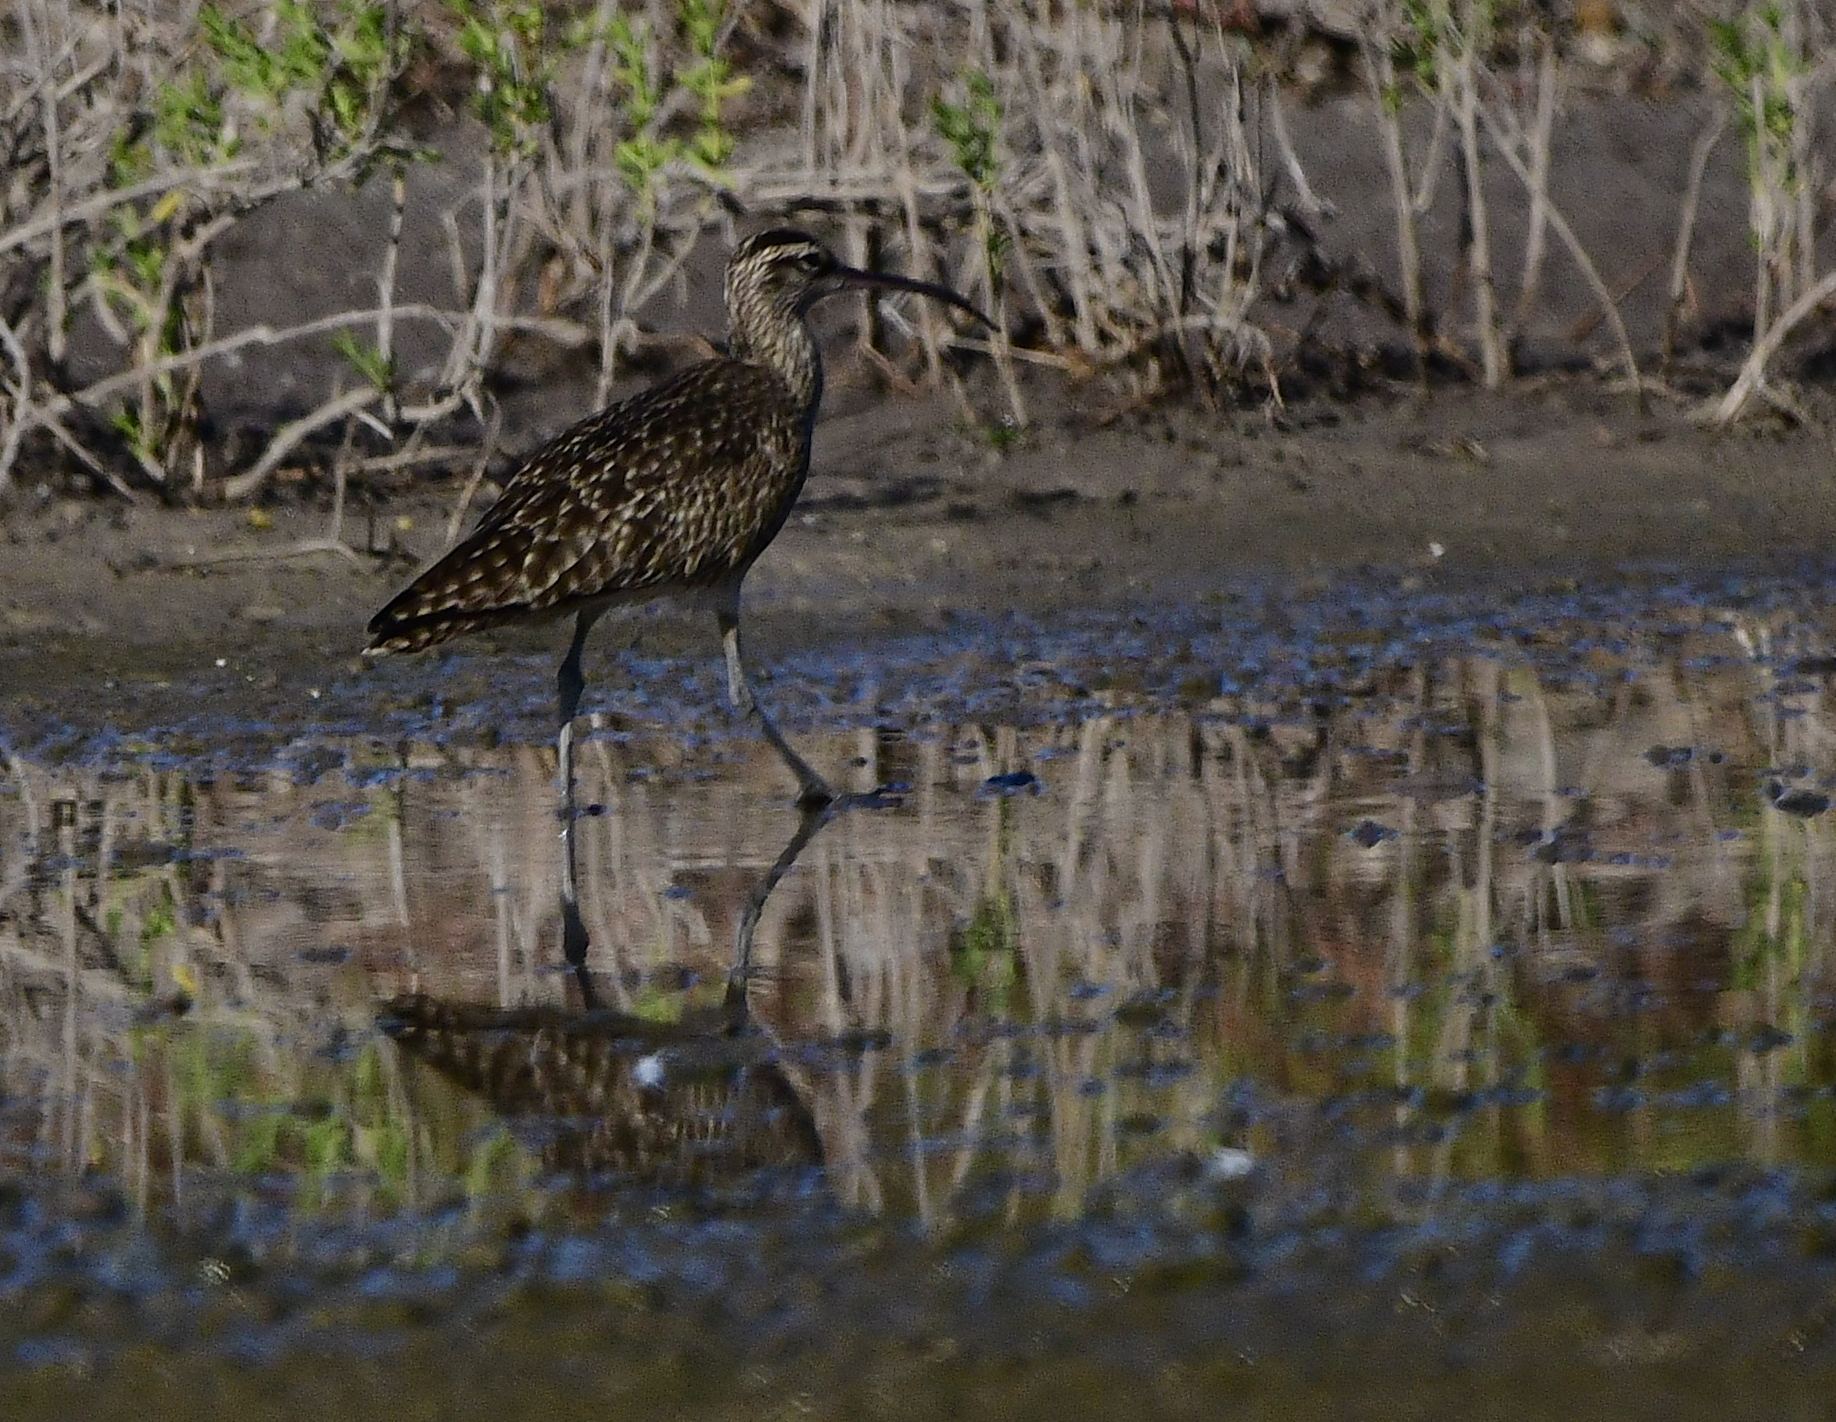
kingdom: Animalia
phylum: Chordata
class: Aves
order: Charadriiformes
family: Scolopacidae
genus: Numenius
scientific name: Numenius phaeopus
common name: Whimbrel
